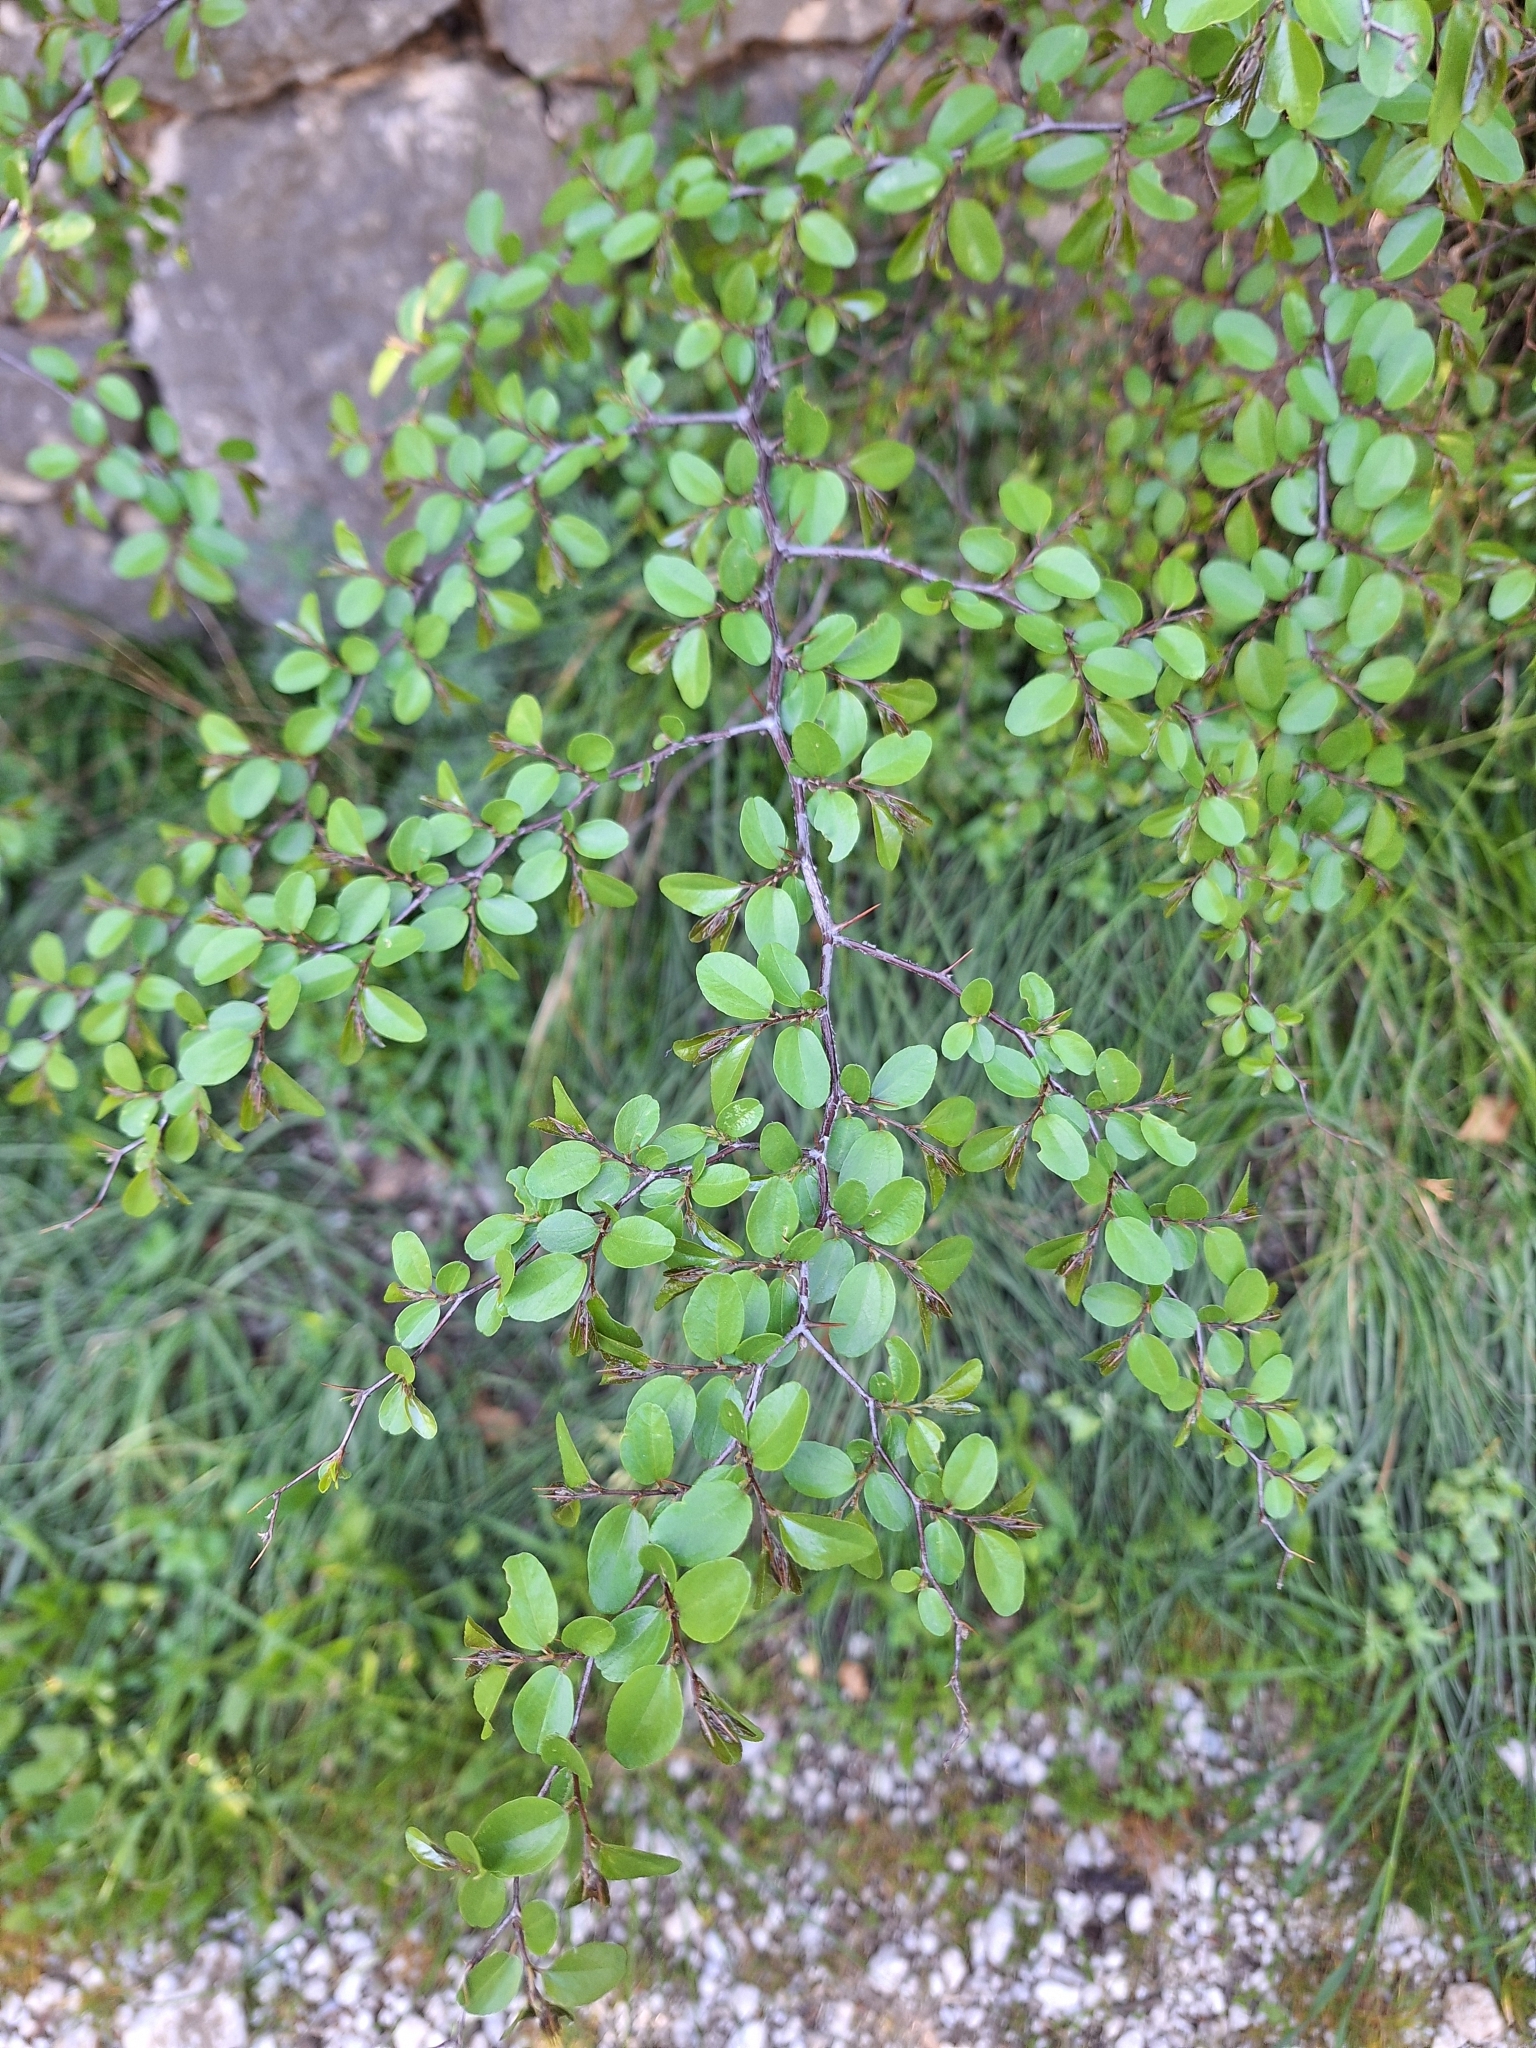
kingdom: Plantae
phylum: Tracheophyta
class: Magnoliopsida
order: Rosales
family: Rhamnaceae
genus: Paliurus
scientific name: Paliurus spina-christi
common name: Jeruselem thorn
